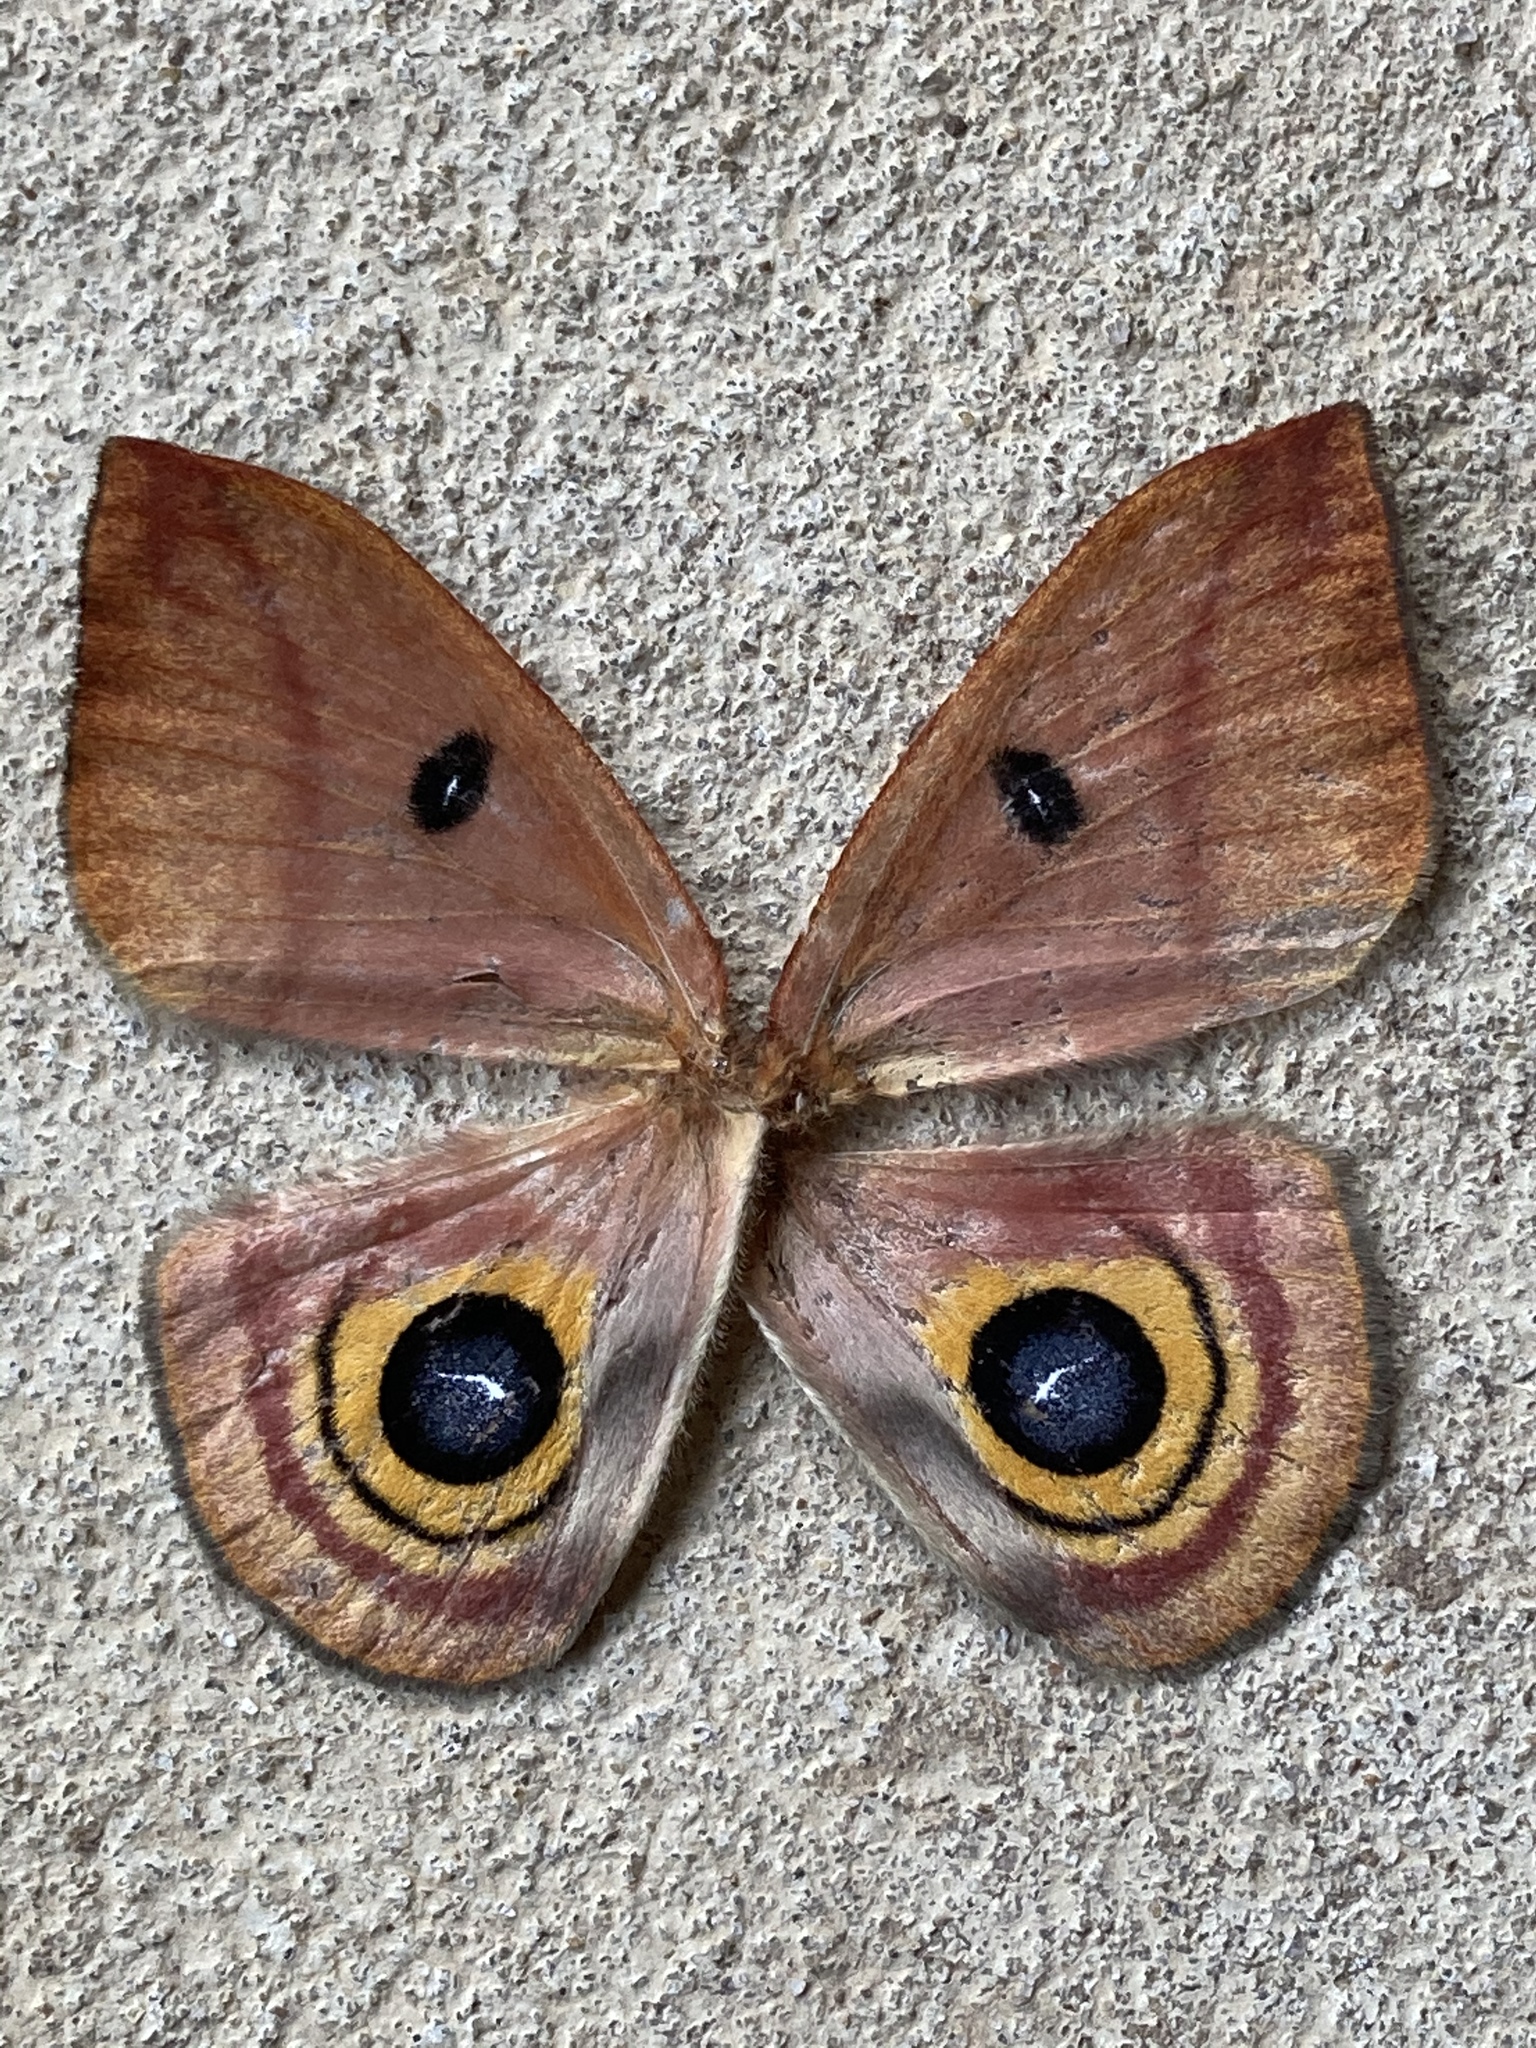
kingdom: Animalia
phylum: Arthropoda
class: Insecta
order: Lepidoptera
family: Saturniidae
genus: Automeris
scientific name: Automeris io
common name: Io moth
